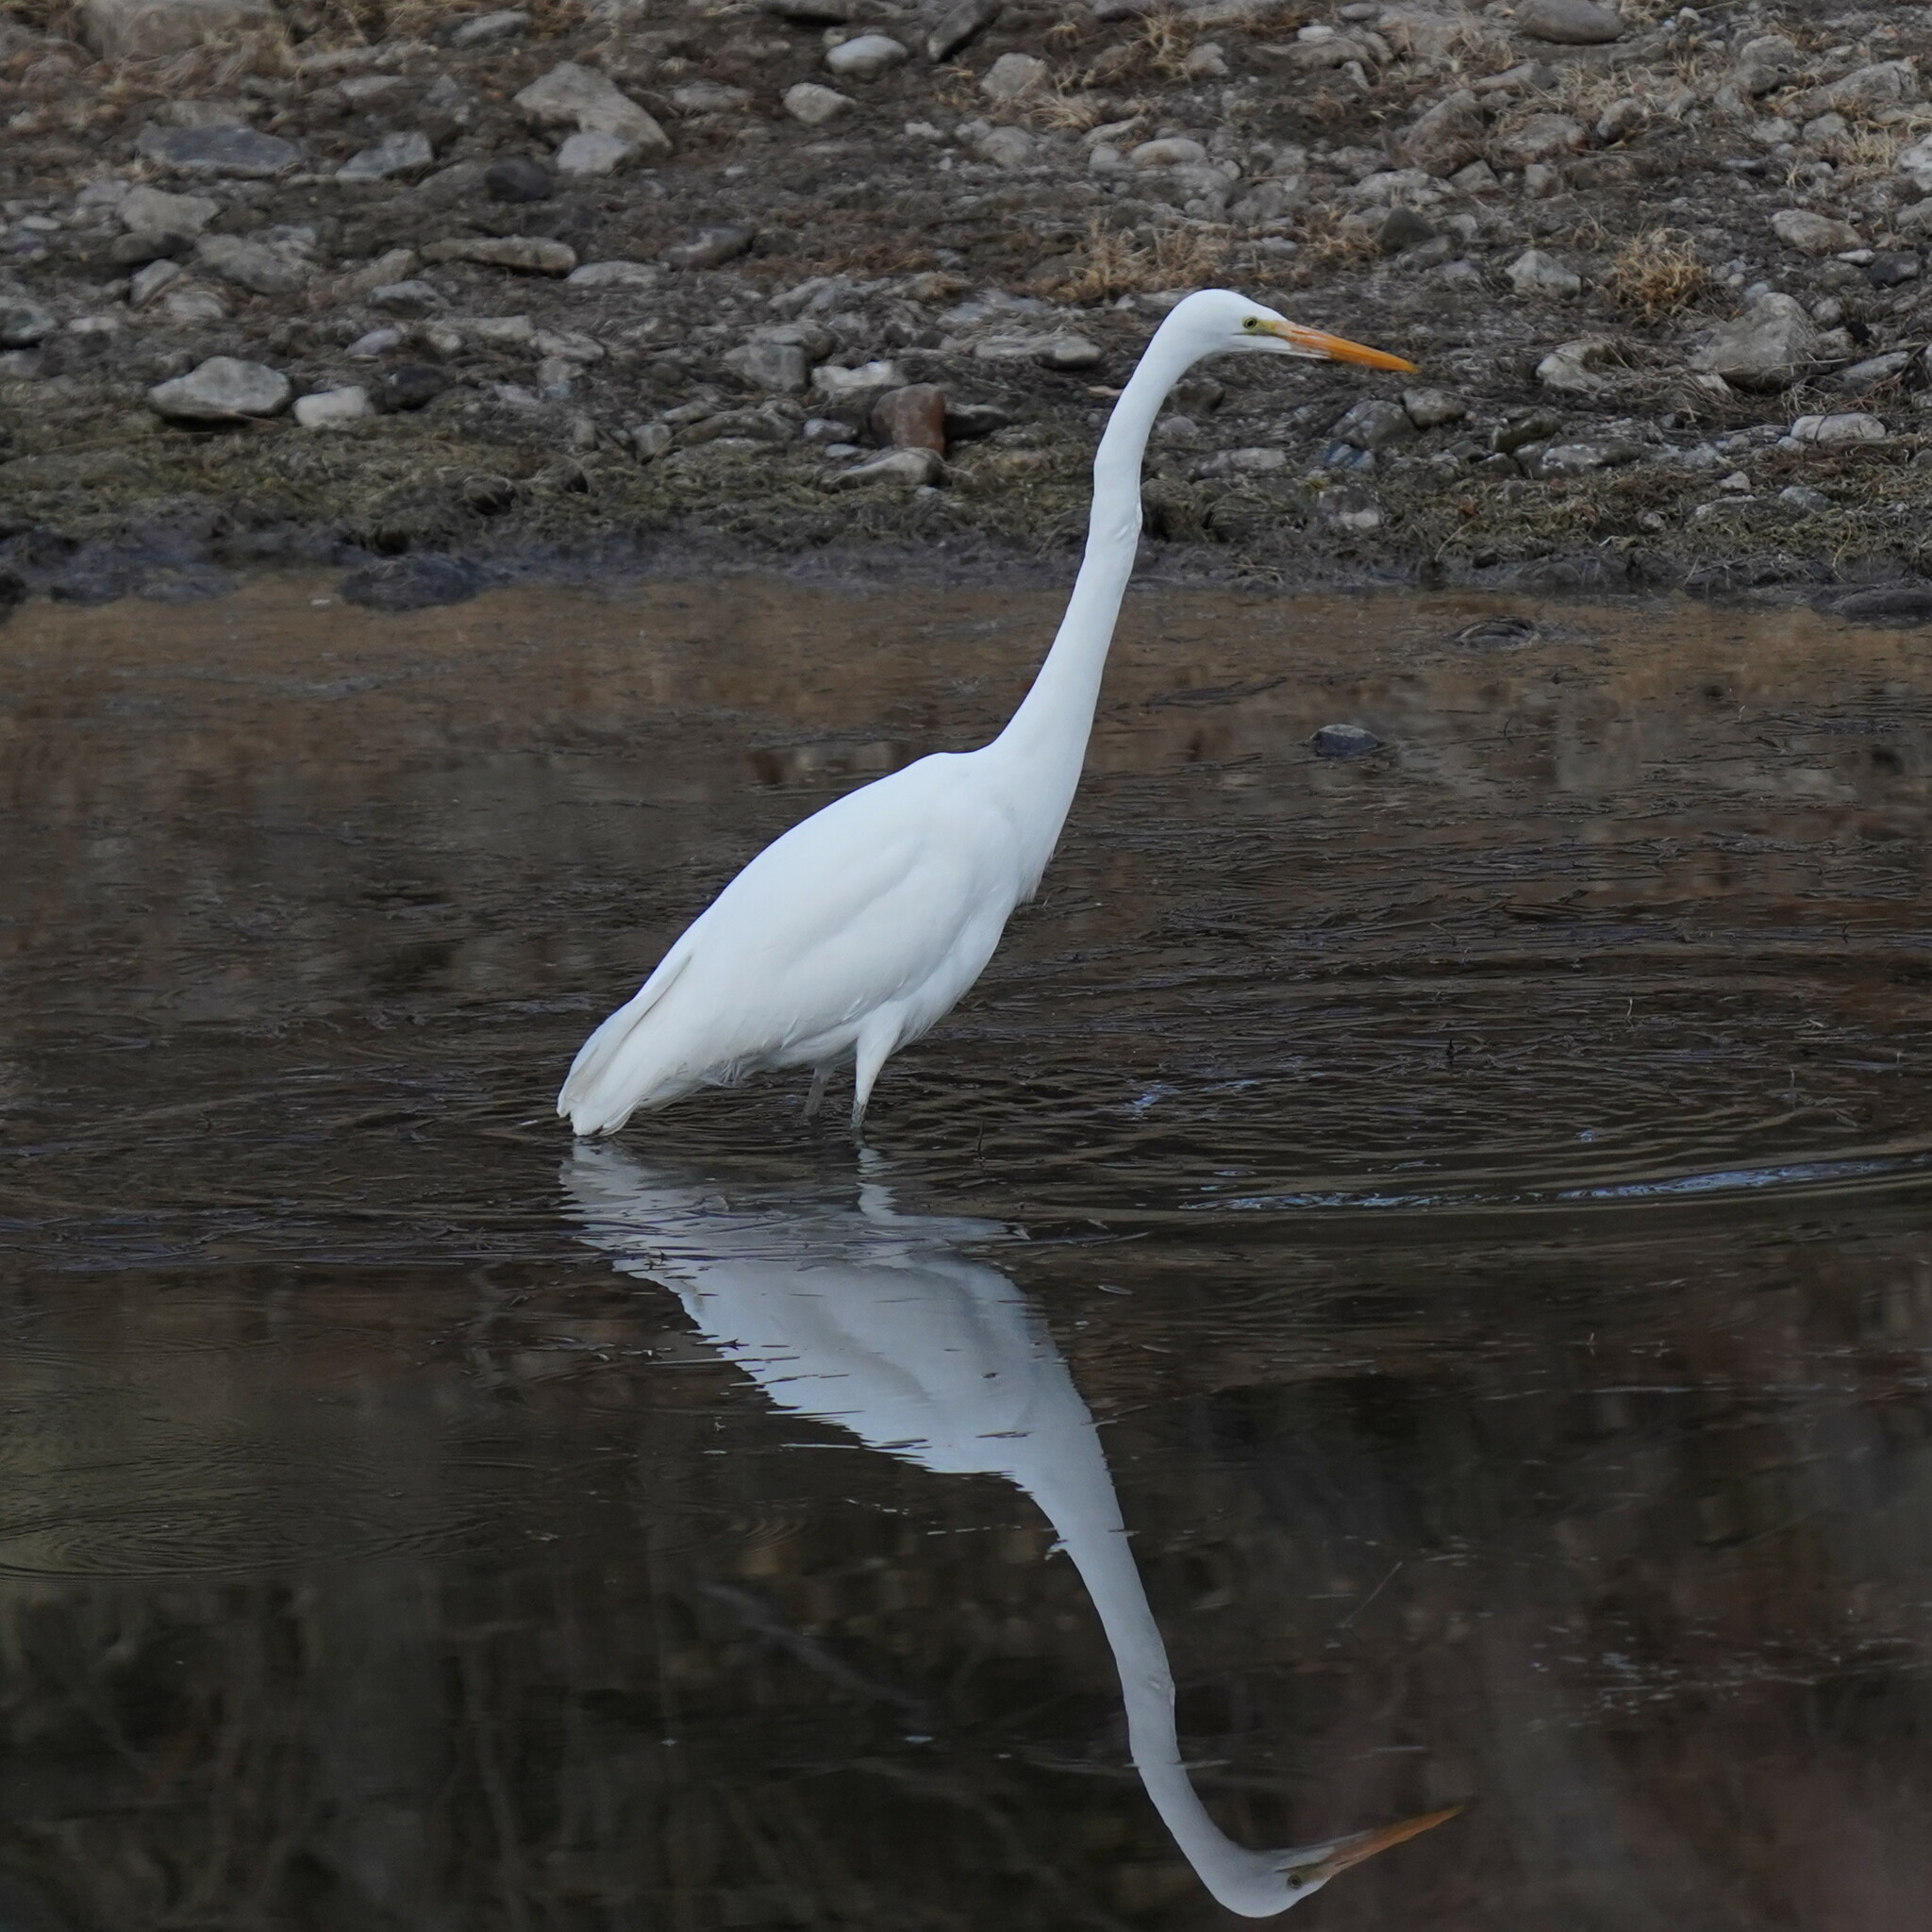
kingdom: Animalia
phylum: Chordata
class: Aves
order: Pelecaniformes
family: Ardeidae
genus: Ardea
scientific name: Ardea alba
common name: Great egret
